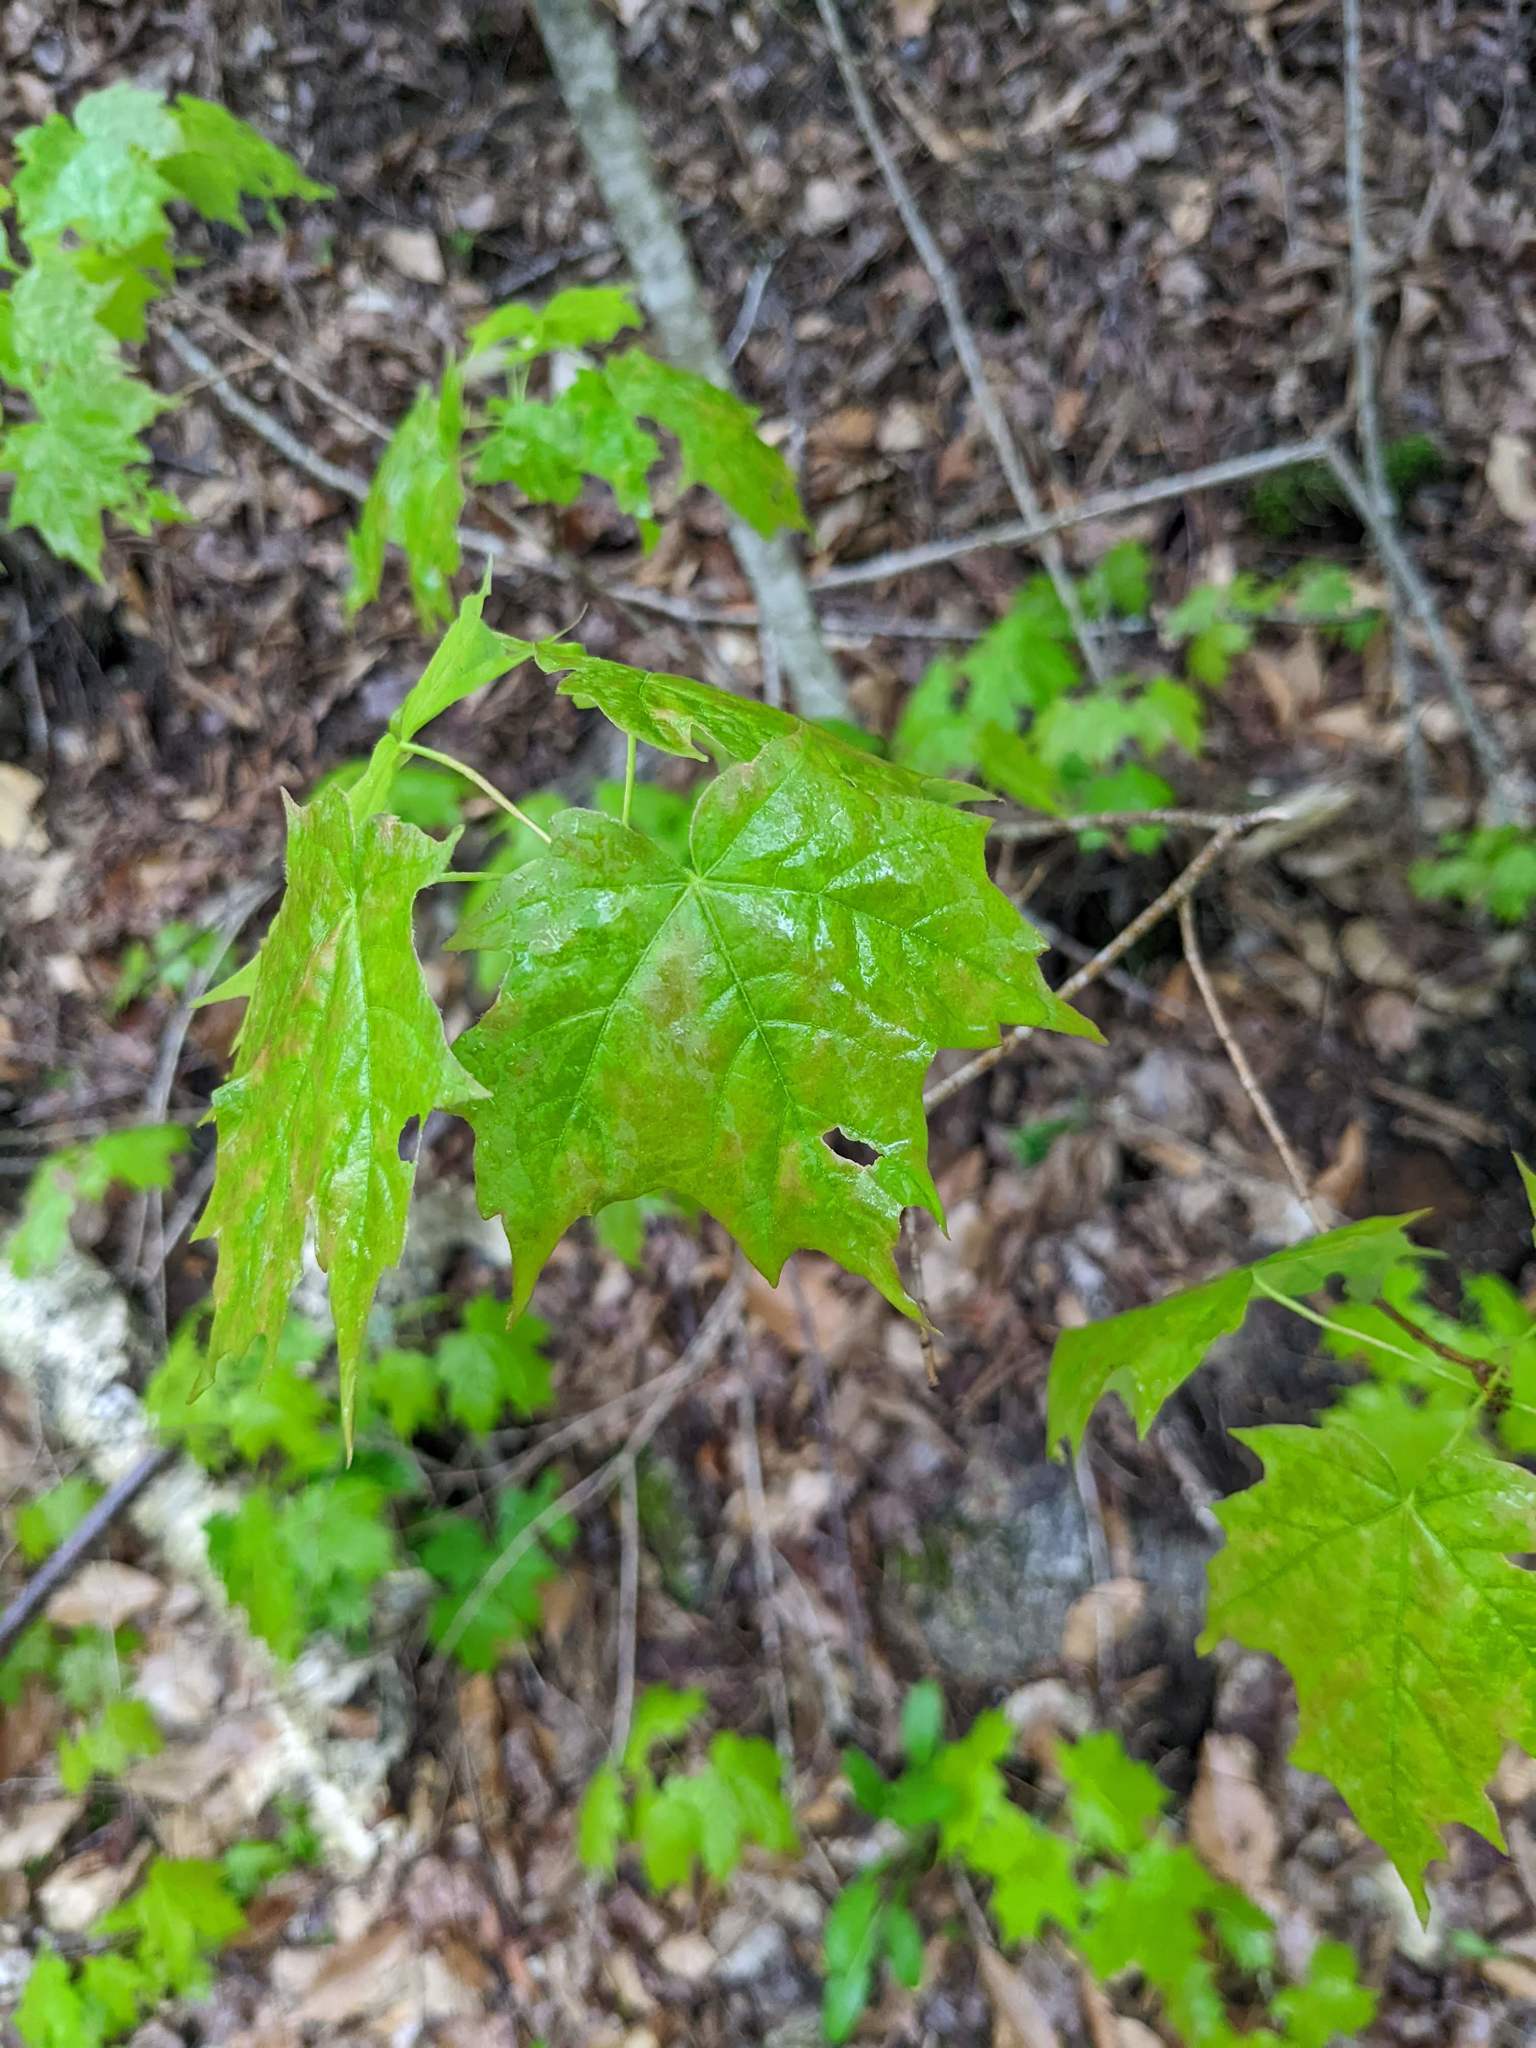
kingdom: Plantae
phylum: Tracheophyta
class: Magnoliopsida
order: Sapindales
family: Sapindaceae
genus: Acer
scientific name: Acer saccharum
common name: Sugar maple
